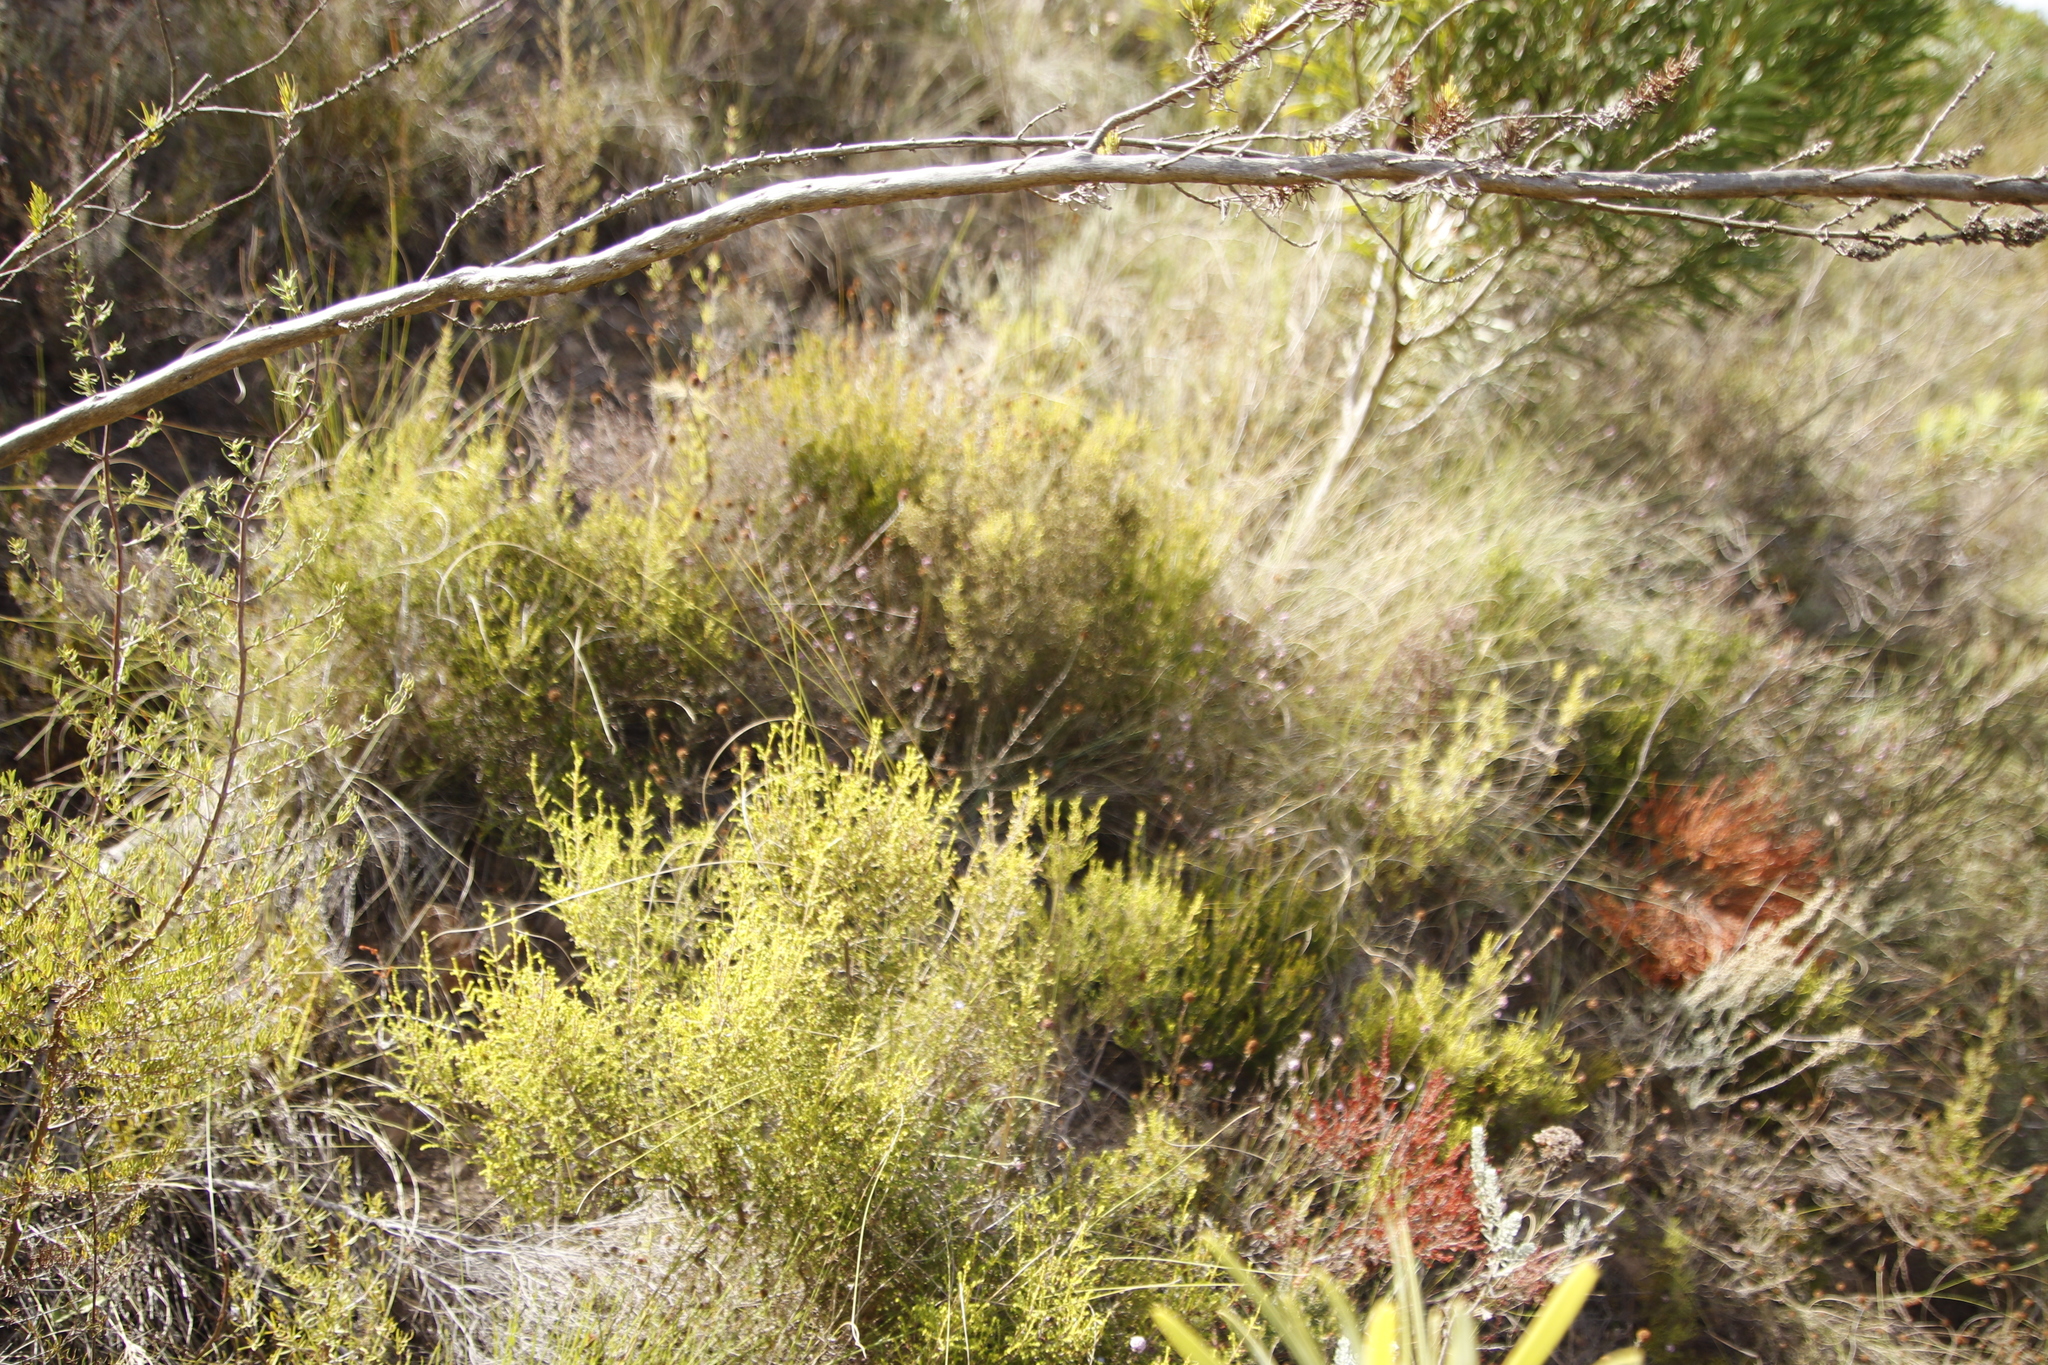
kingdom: Plantae
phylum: Tracheophyta
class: Magnoliopsida
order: Asterales
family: Asteraceae
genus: Stoebe
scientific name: Stoebe capitata
